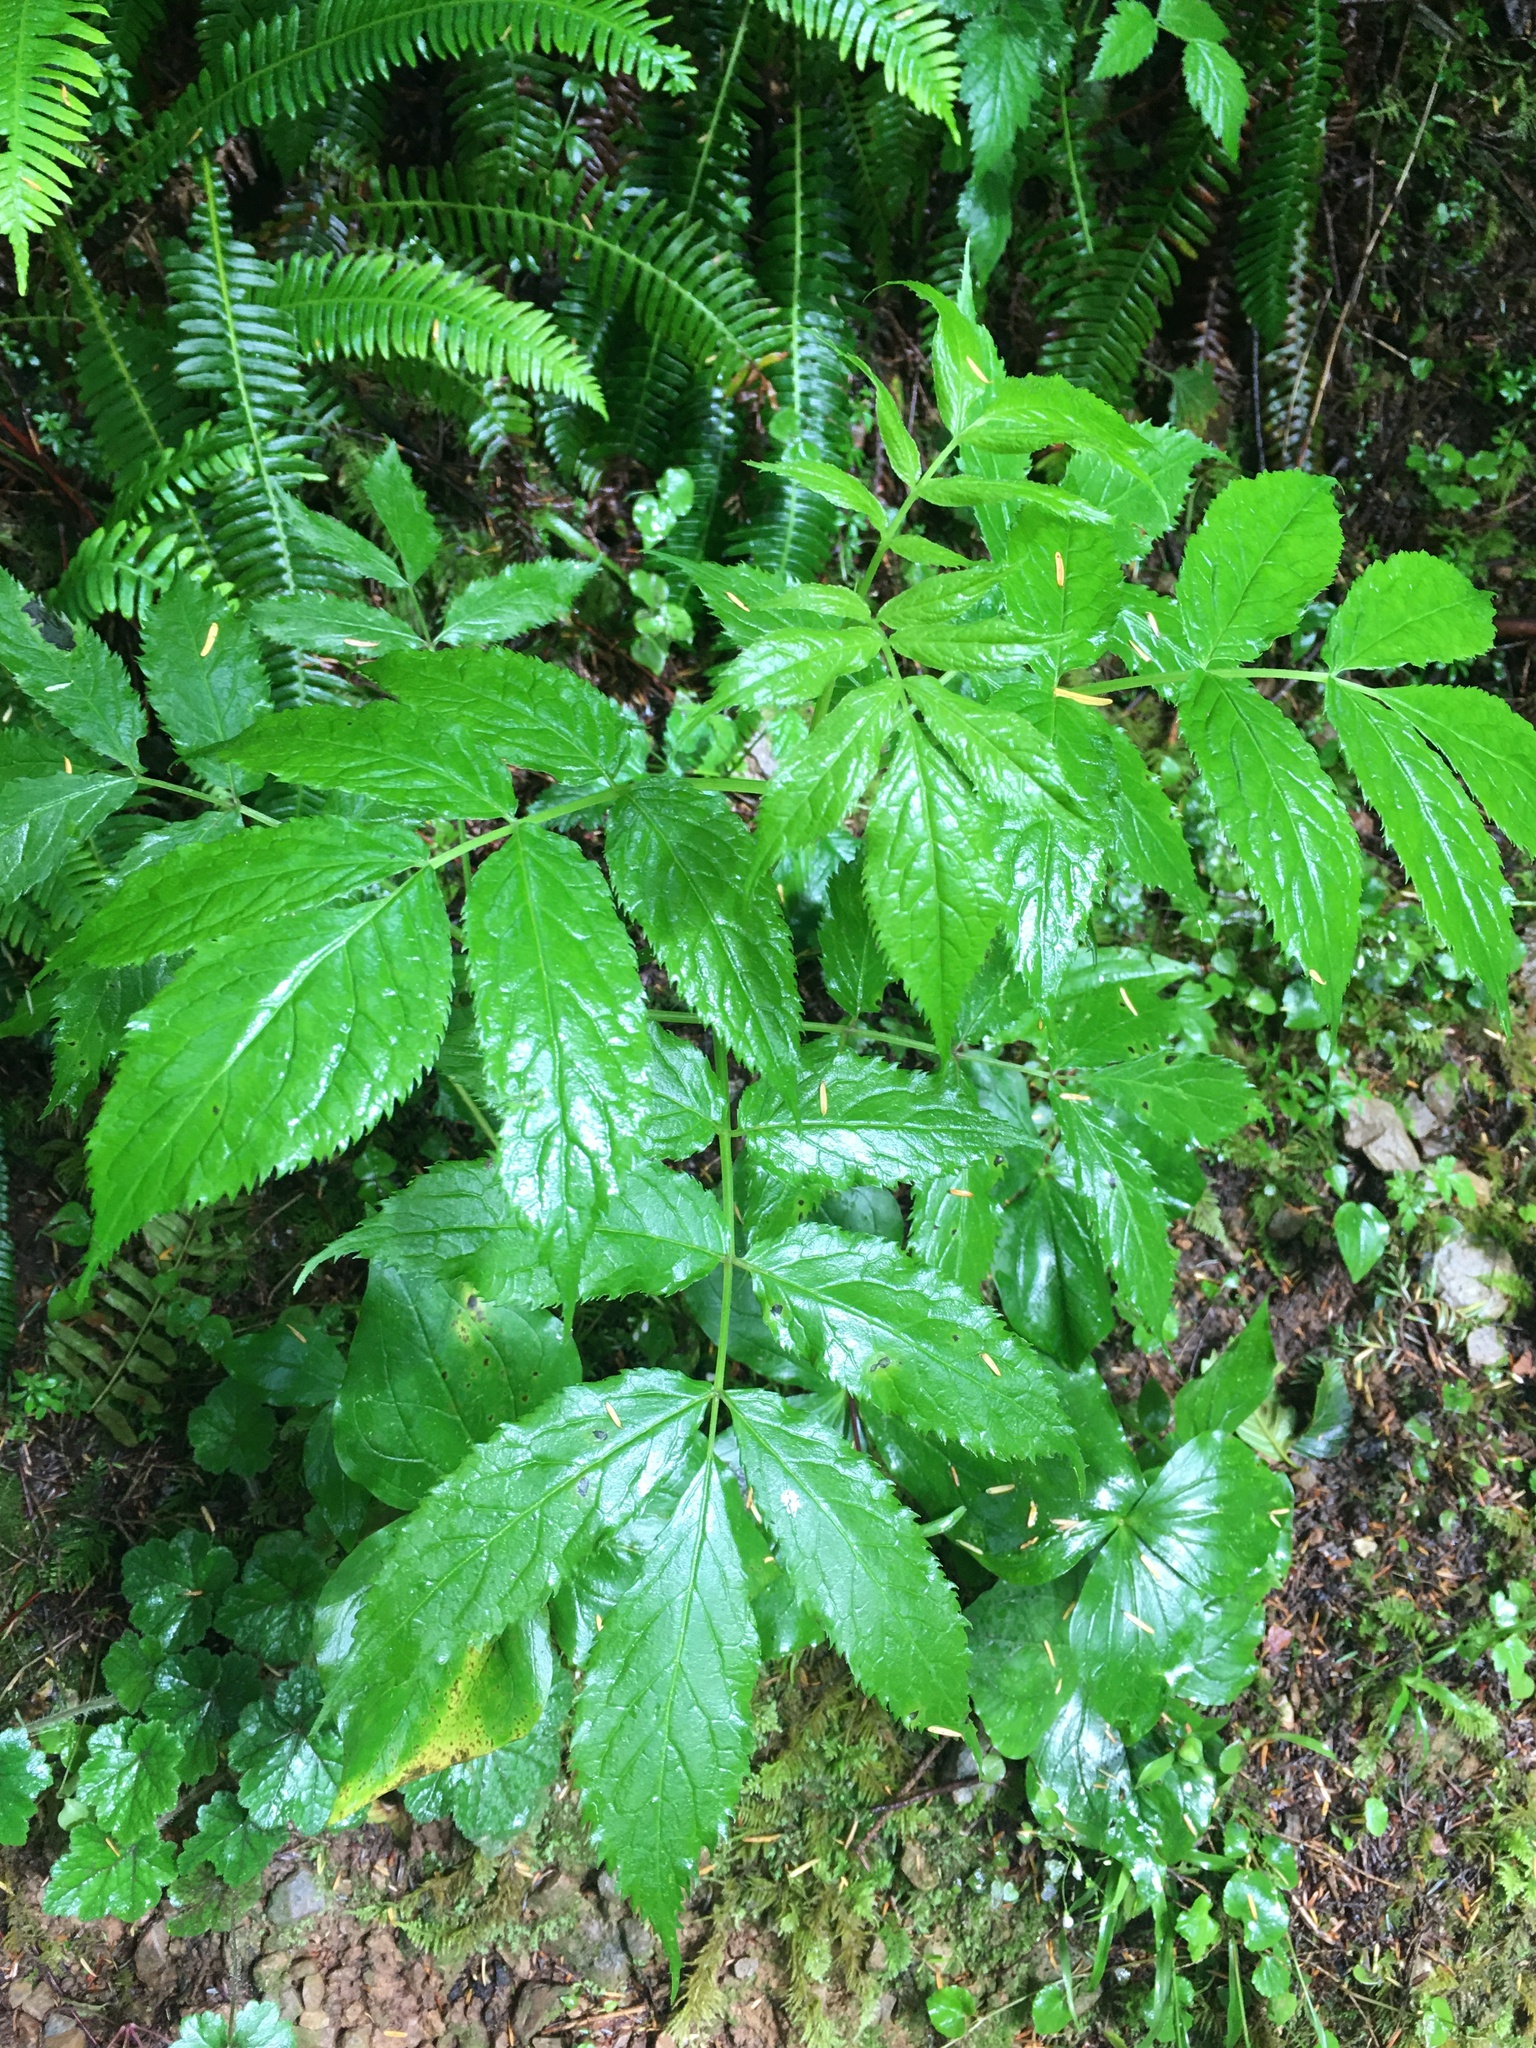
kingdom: Plantae
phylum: Tracheophyta
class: Magnoliopsida
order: Dipsacales
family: Viburnaceae
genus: Sambucus
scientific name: Sambucus racemosa
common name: Red-berried elder
